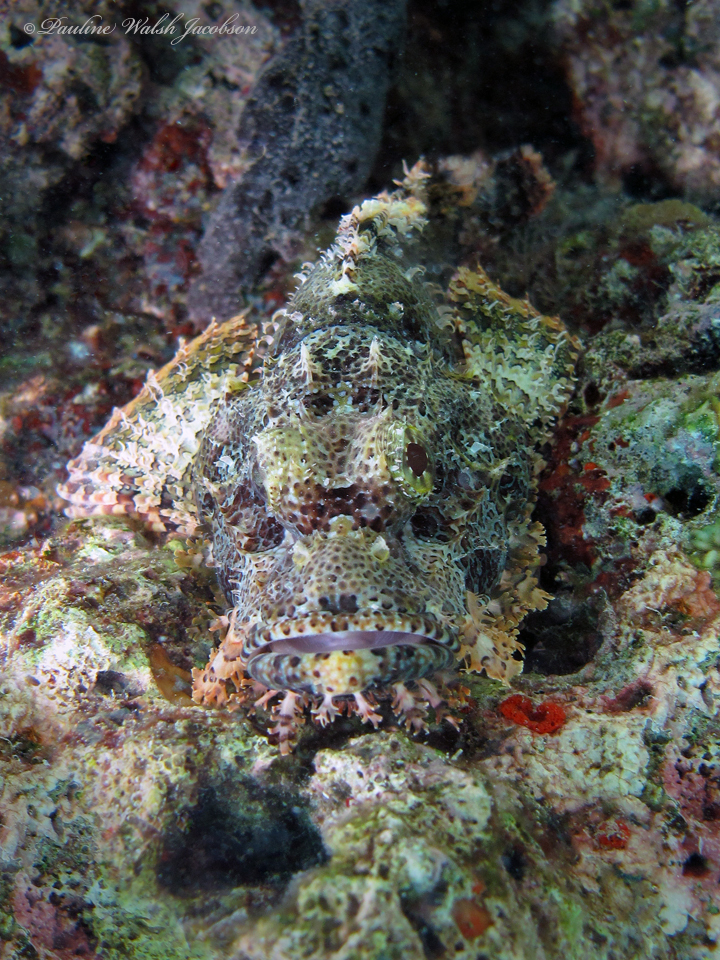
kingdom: Animalia
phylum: Chordata
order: Scorpaeniformes
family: Scorpaenidae
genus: Scorpaenopsis
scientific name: Scorpaenopsis oxycephala
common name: Smallscale scorpionfish
